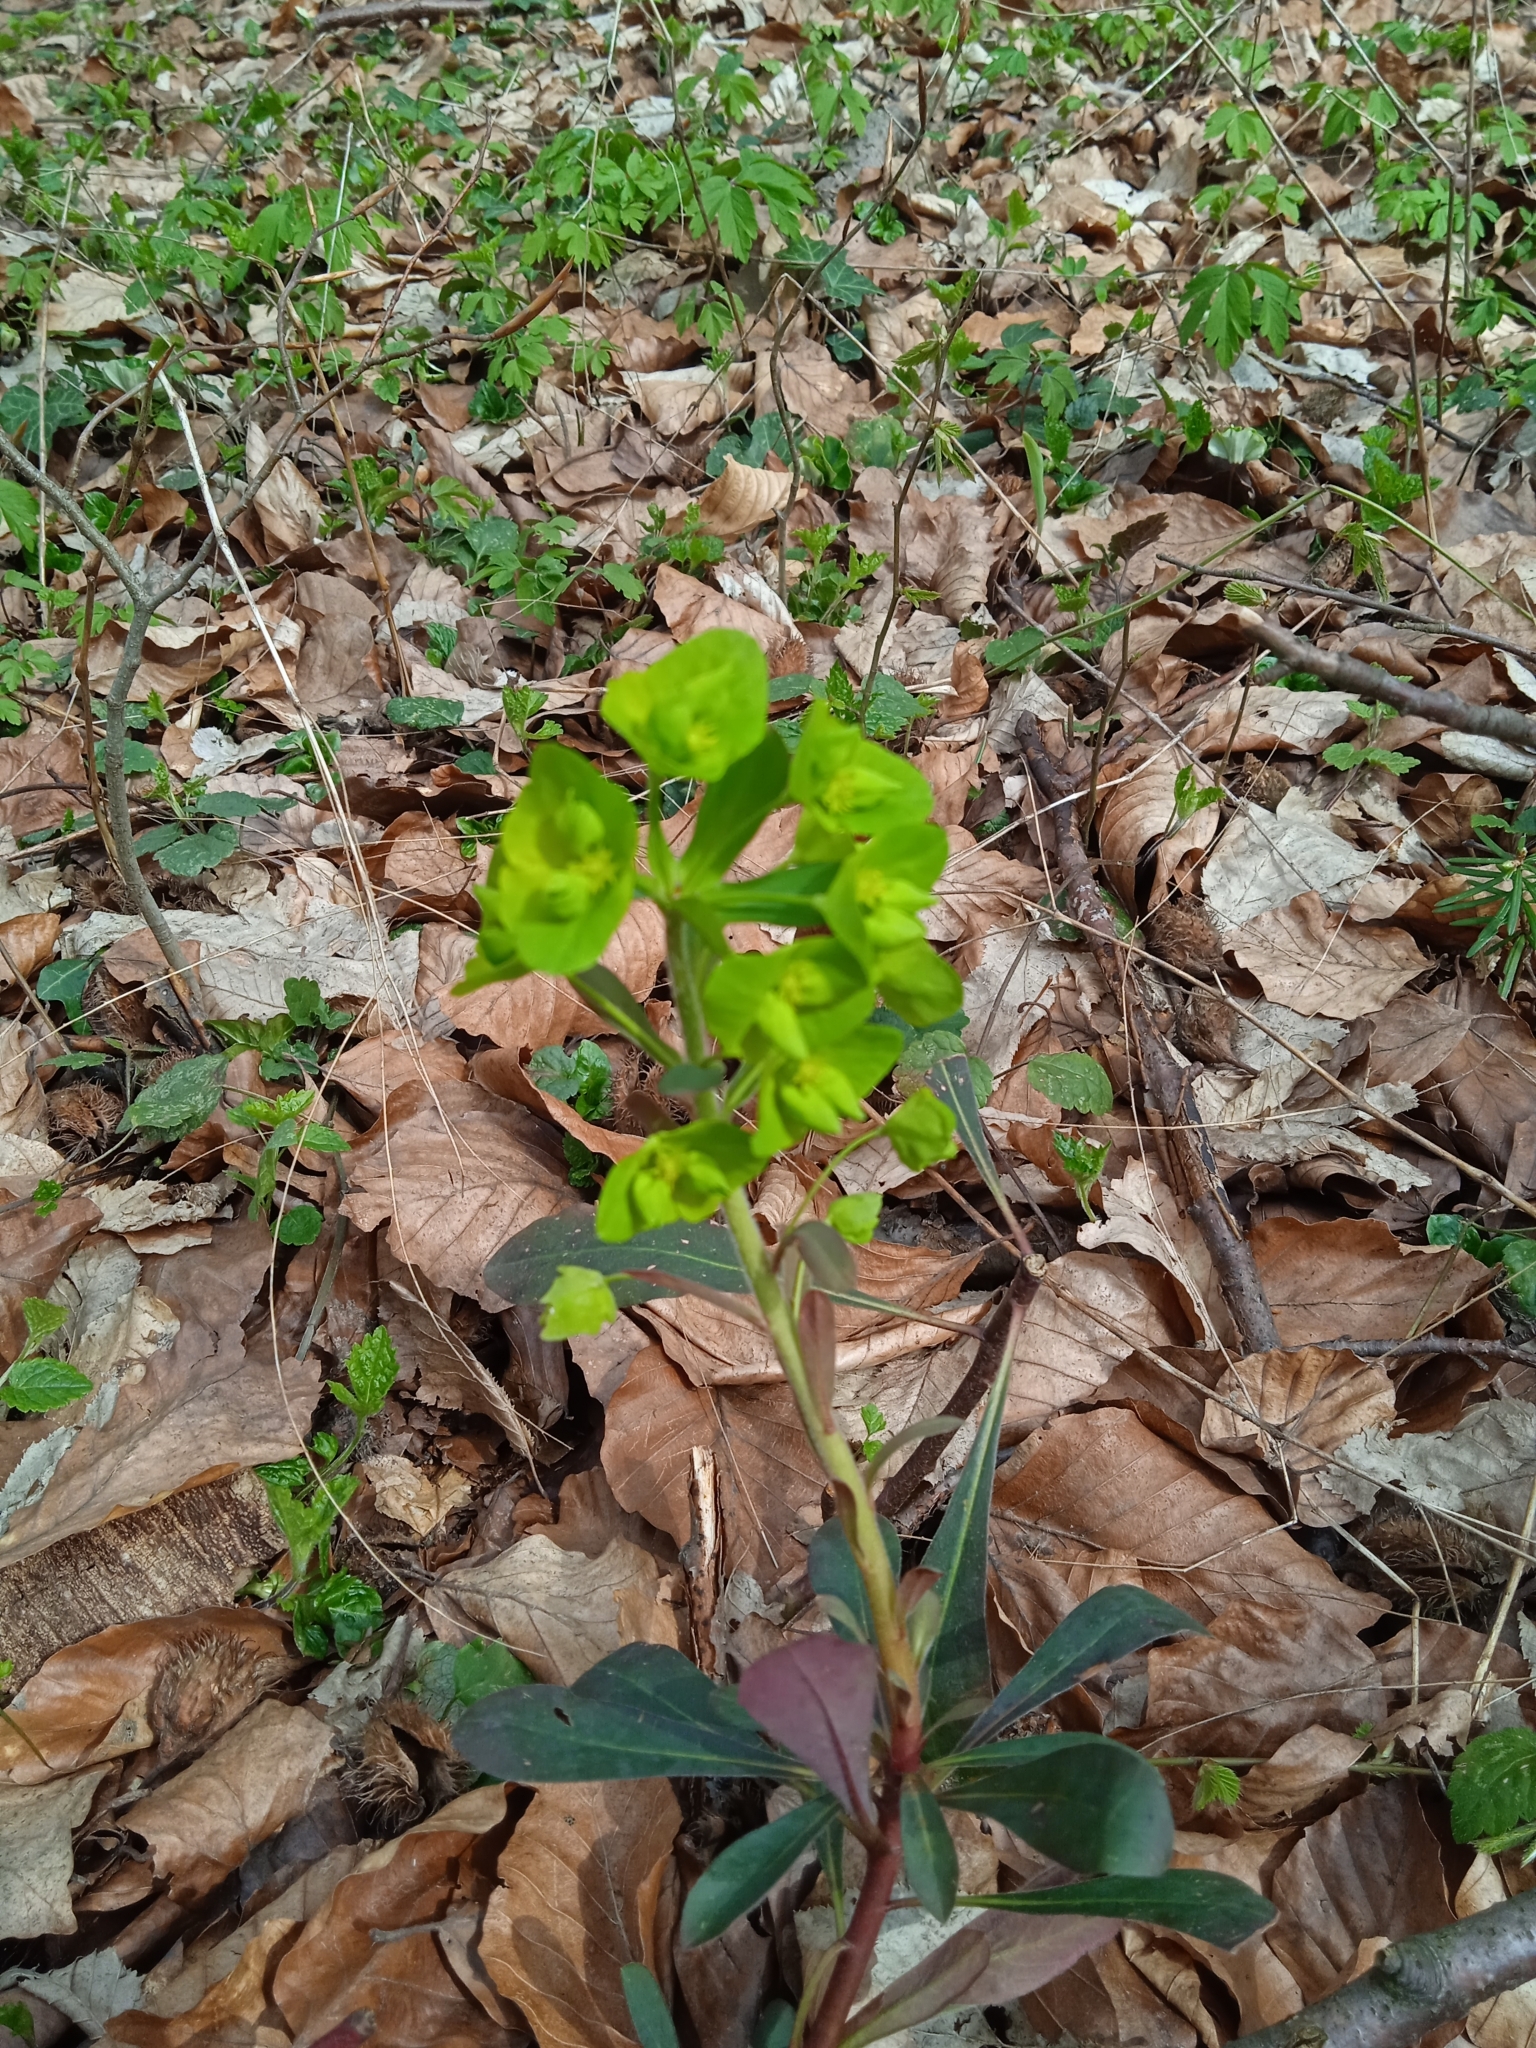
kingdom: Plantae
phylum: Tracheophyta
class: Magnoliopsida
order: Malpighiales
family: Euphorbiaceae
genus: Euphorbia
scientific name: Euphorbia amygdaloides
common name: Wood spurge
